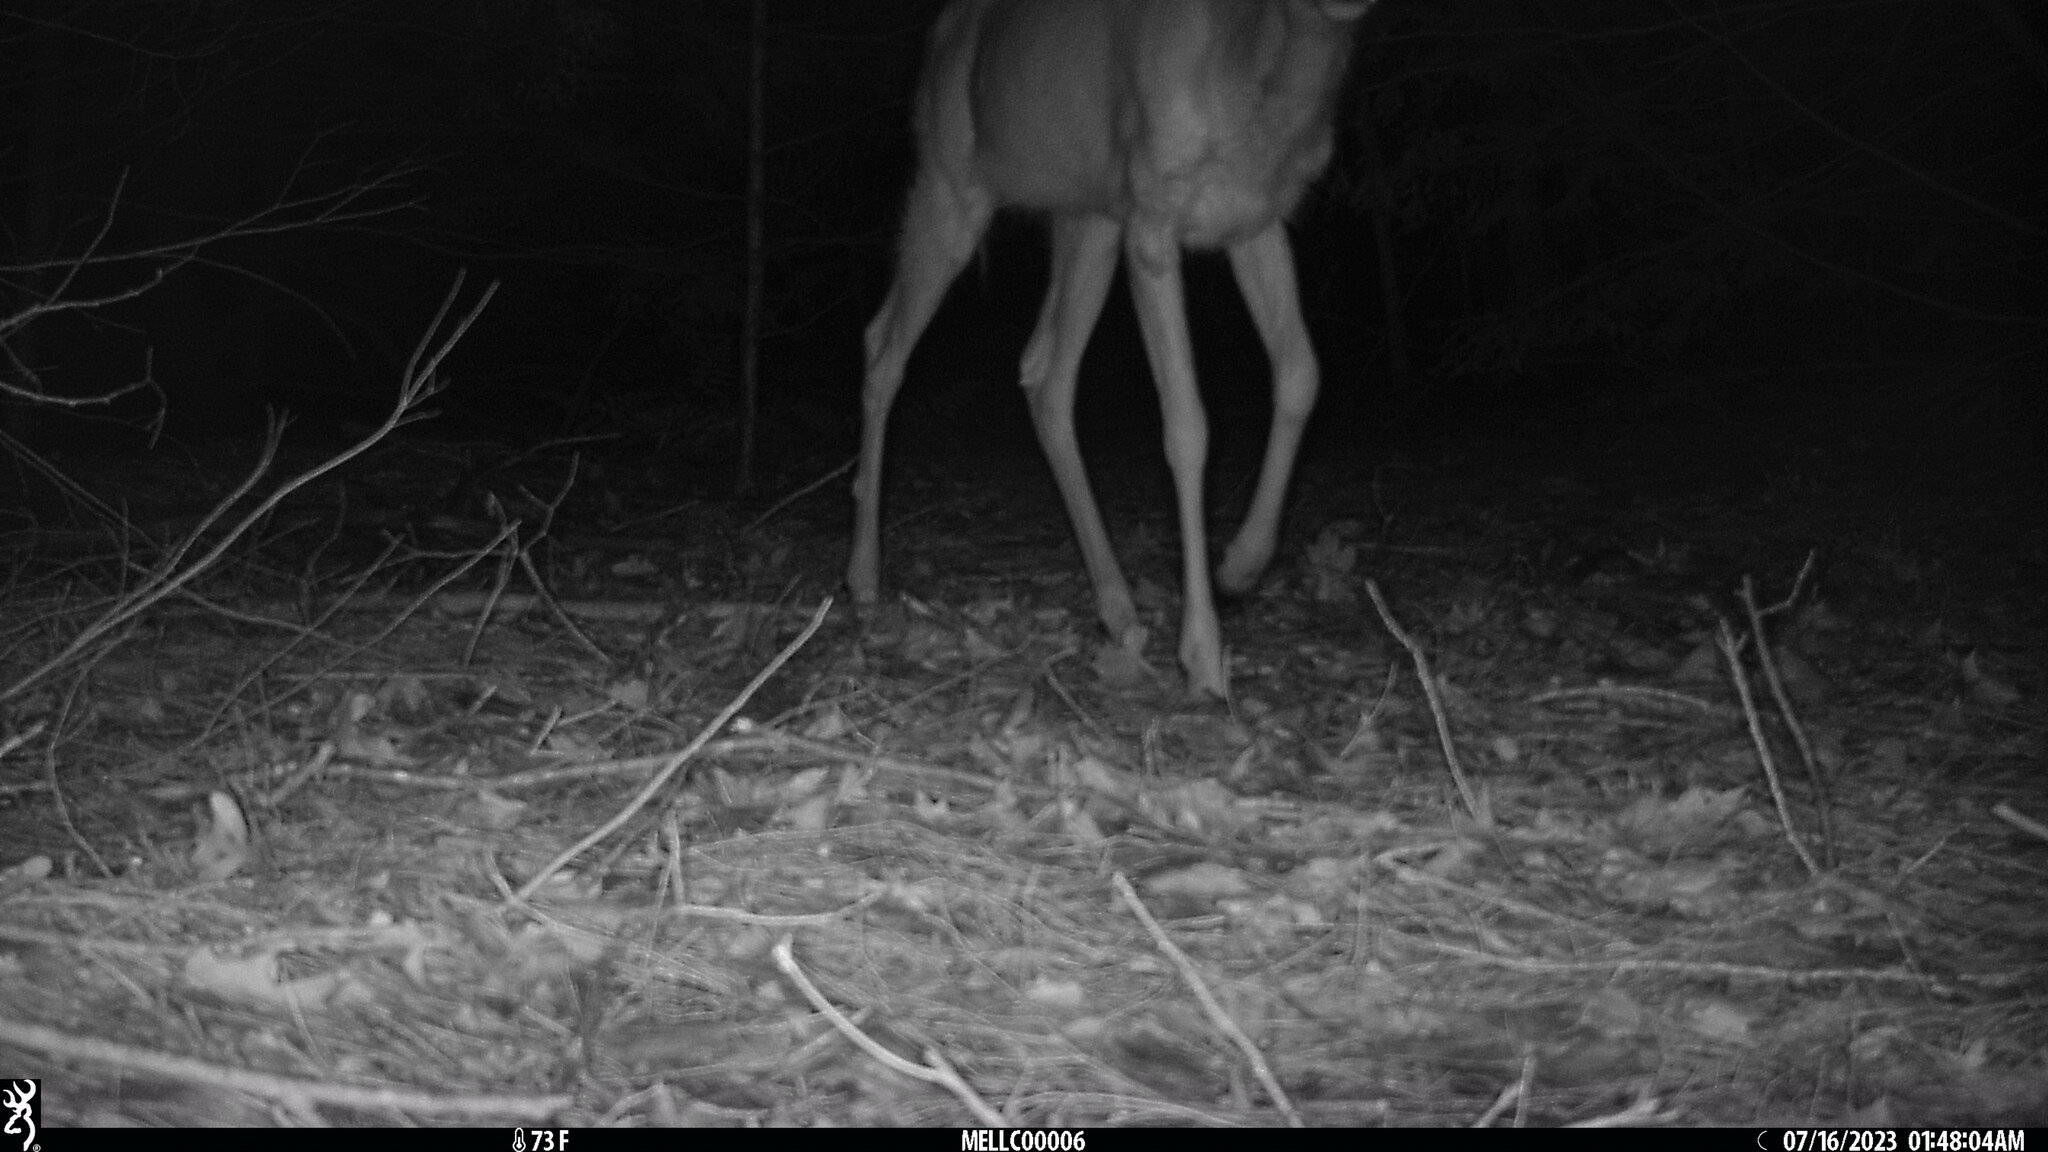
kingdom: Animalia
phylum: Chordata
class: Mammalia
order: Artiodactyla
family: Cervidae
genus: Odocoileus
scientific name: Odocoileus virginianus
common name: White-tailed deer
